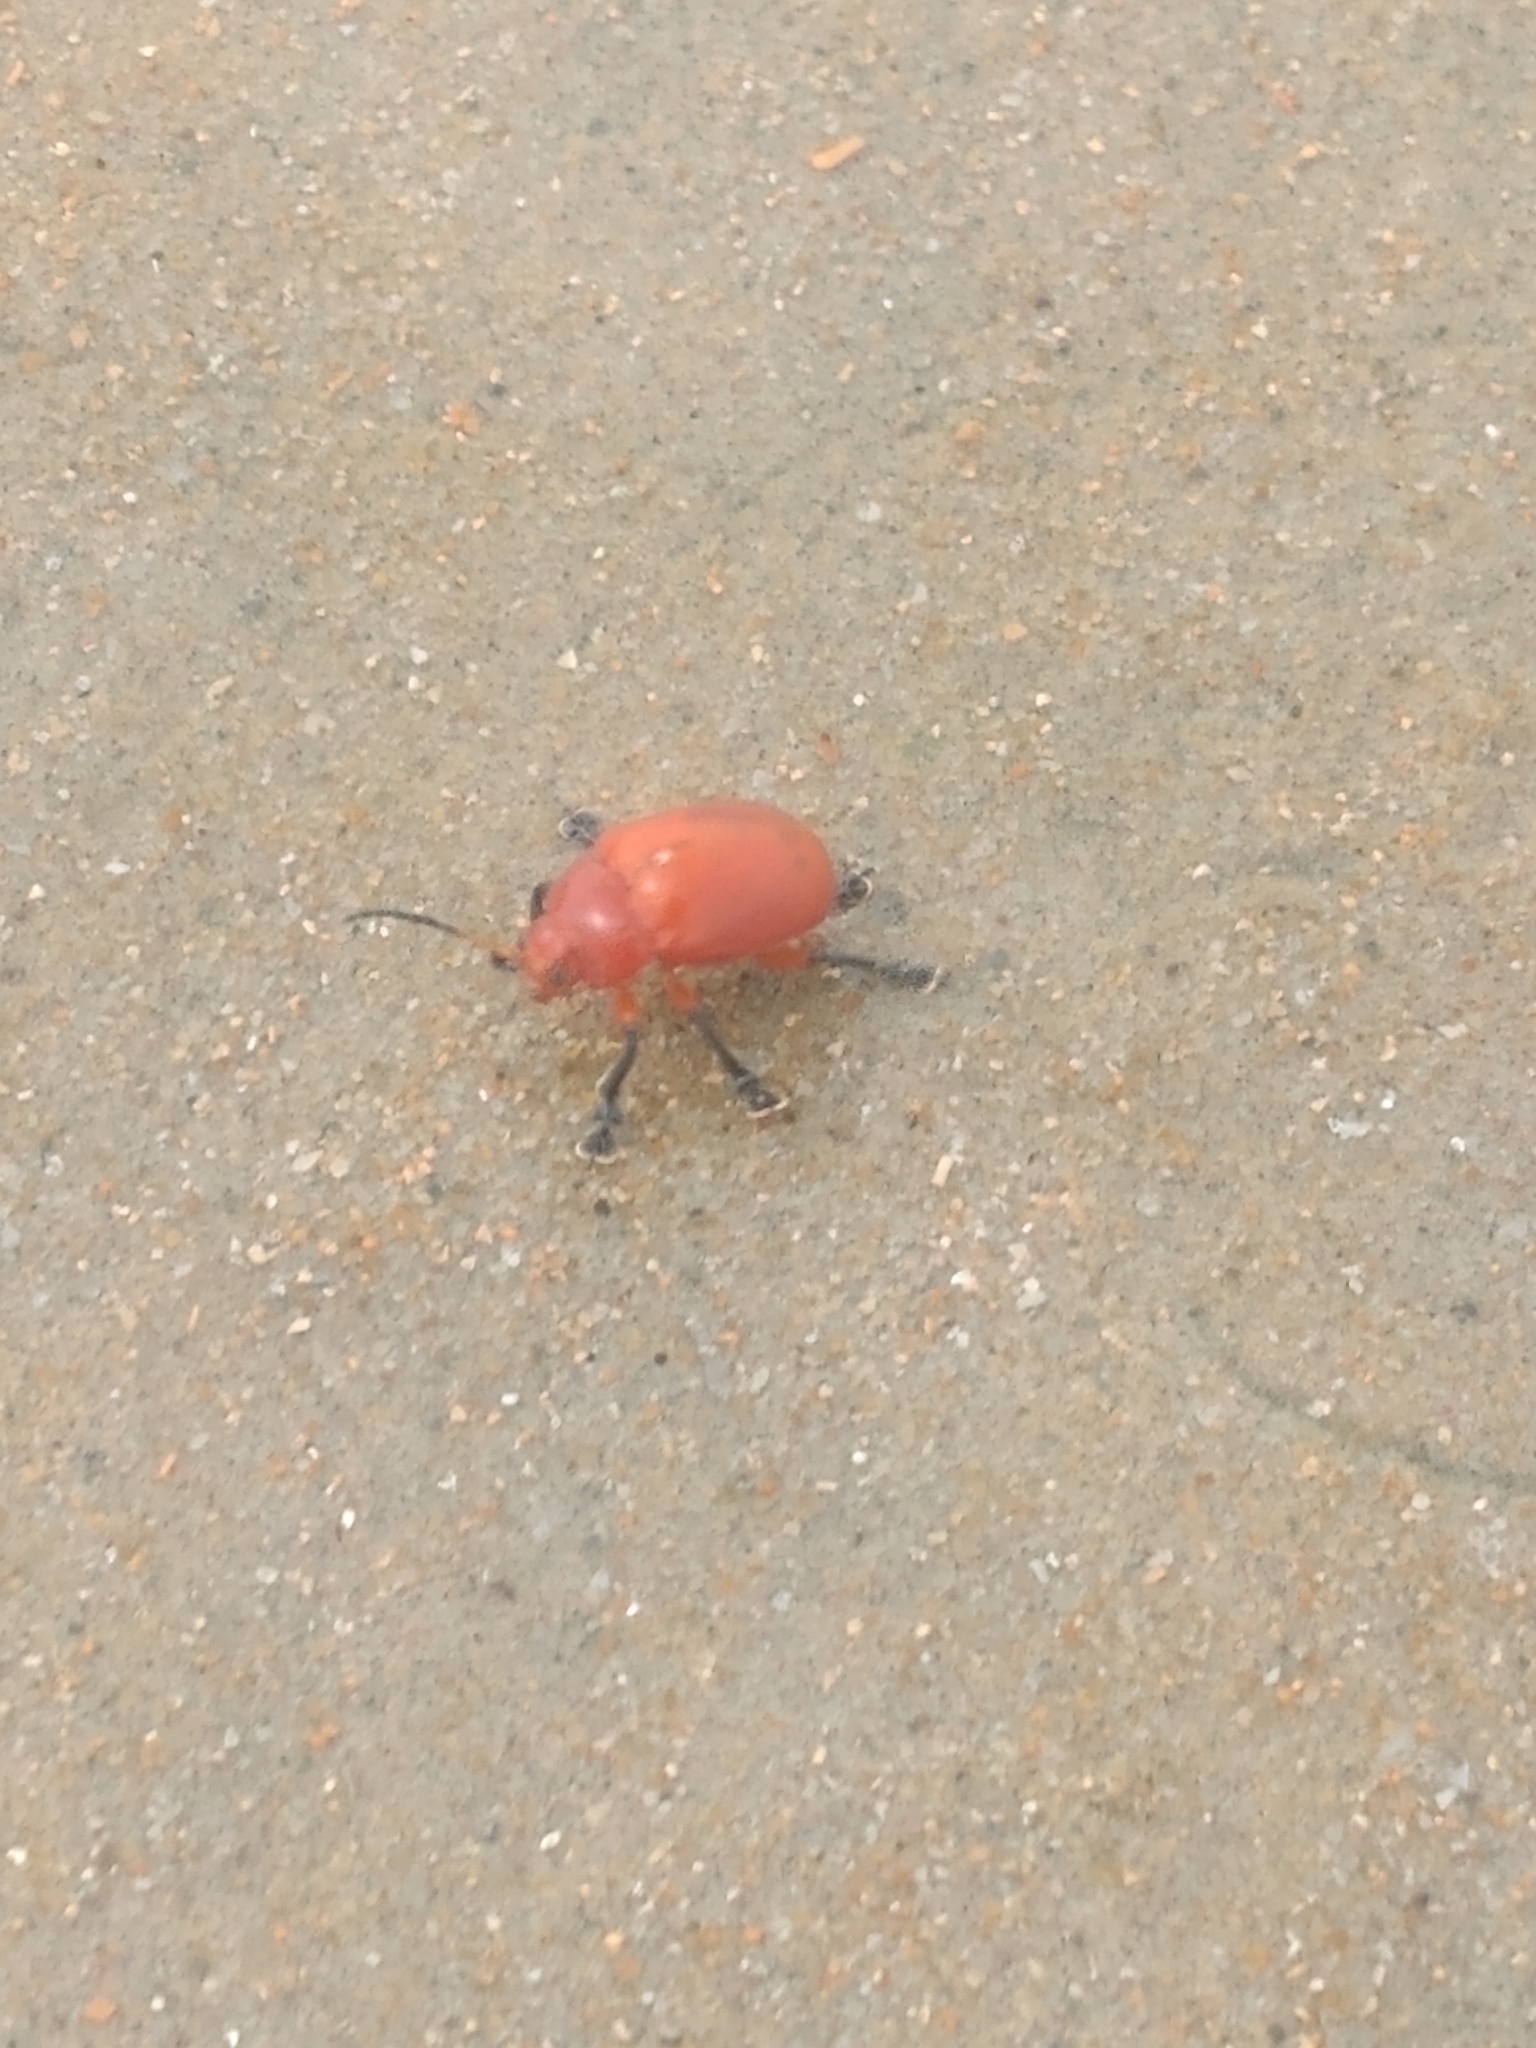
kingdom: Animalia
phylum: Arthropoda
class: Insecta
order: Coleoptera
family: Chrysomelidae
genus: Crimissa
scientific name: Crimissa cruralis
